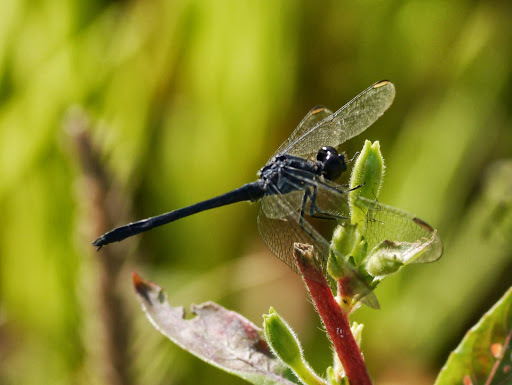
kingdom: Animalia
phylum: Arthropoda
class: Insecta
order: Odonata
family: Libellulidae
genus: Erythrodiplax
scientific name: Erythrodiplax berenice
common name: Seaside dragonlet
